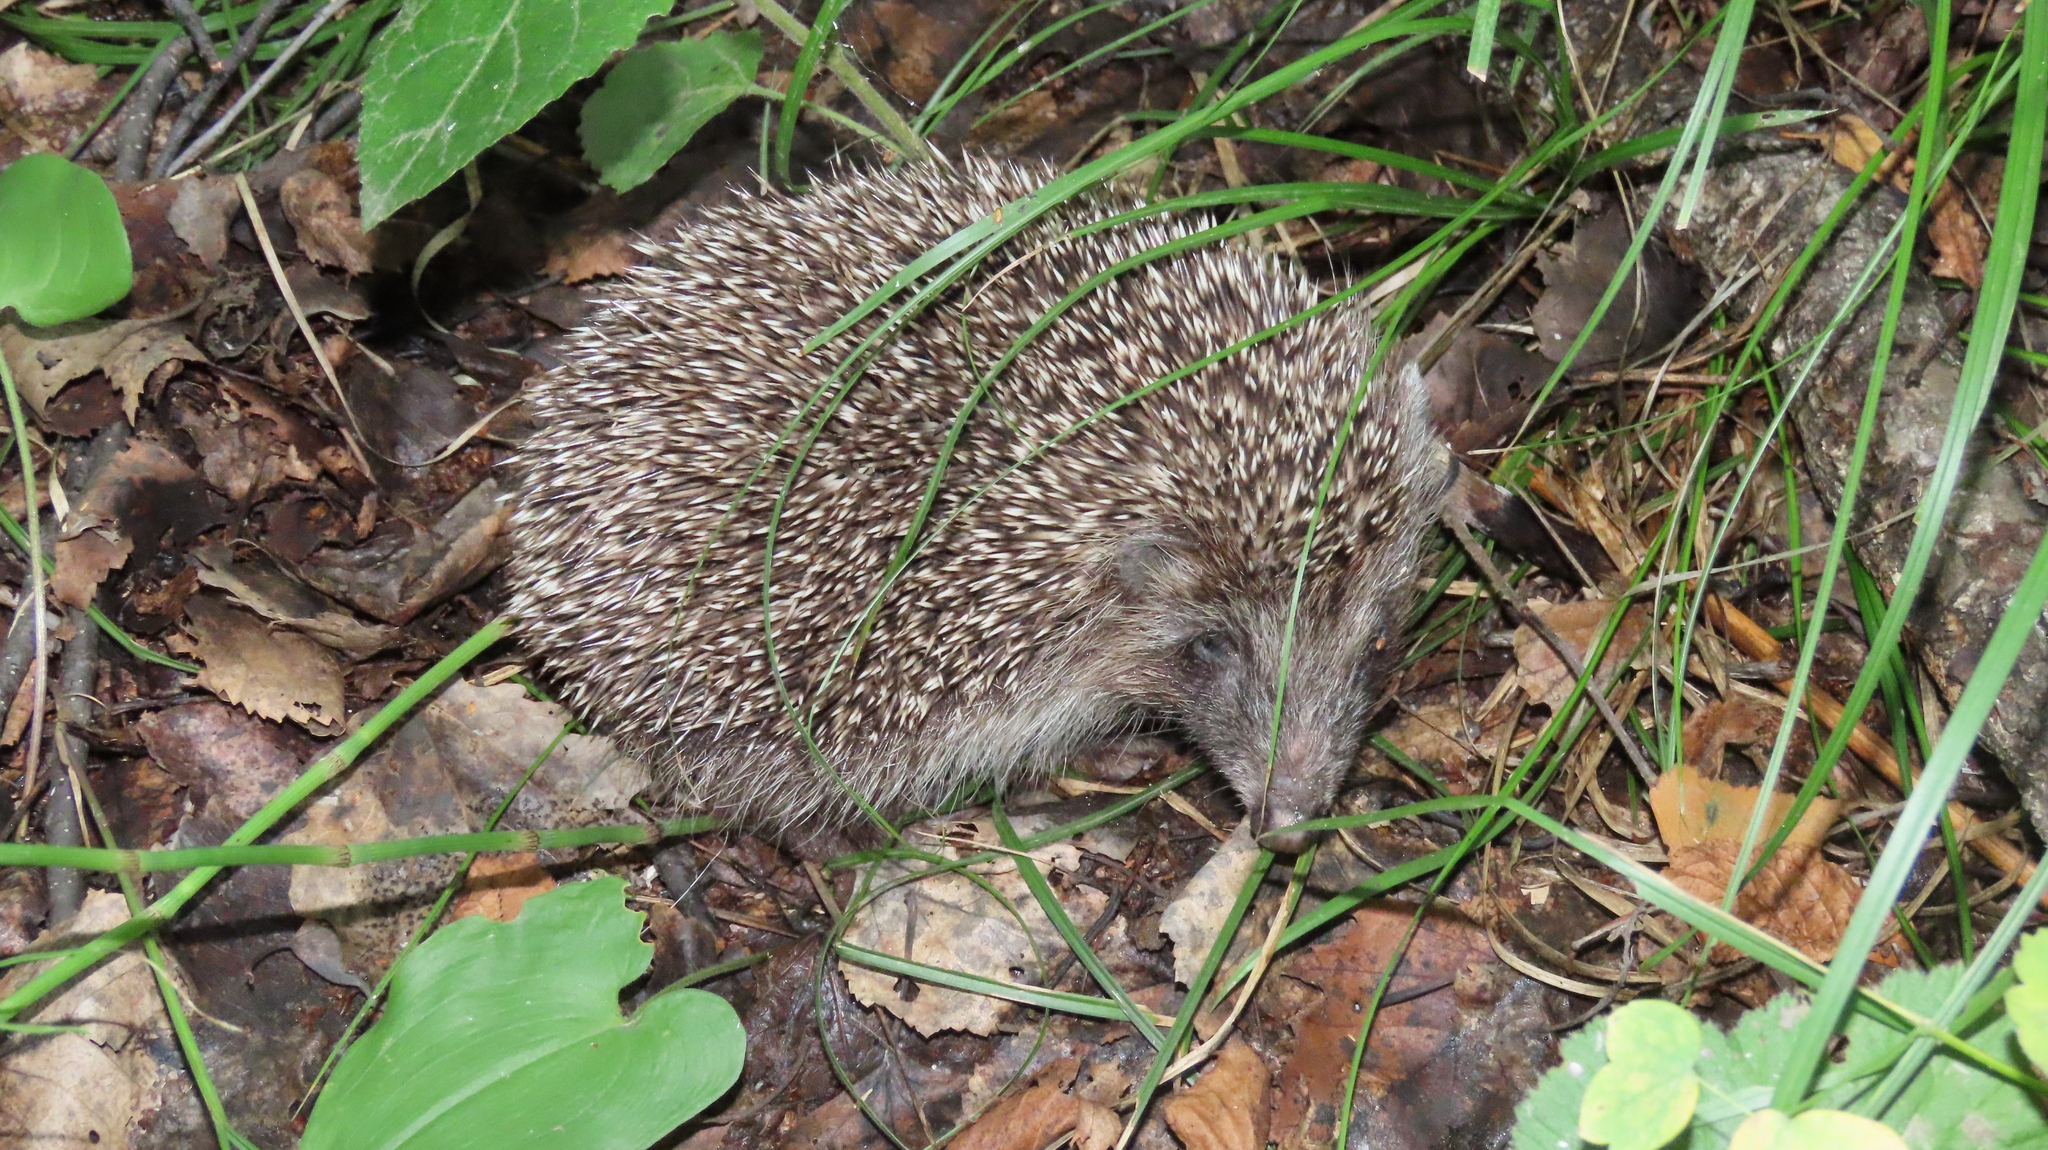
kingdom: Animalia
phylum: Chordata
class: Mammalia
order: Erinaceomorpha
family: Erinaceidae
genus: Erinaceus
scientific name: Erinaceus roumanicus
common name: Northern white-breasted hedgehog
